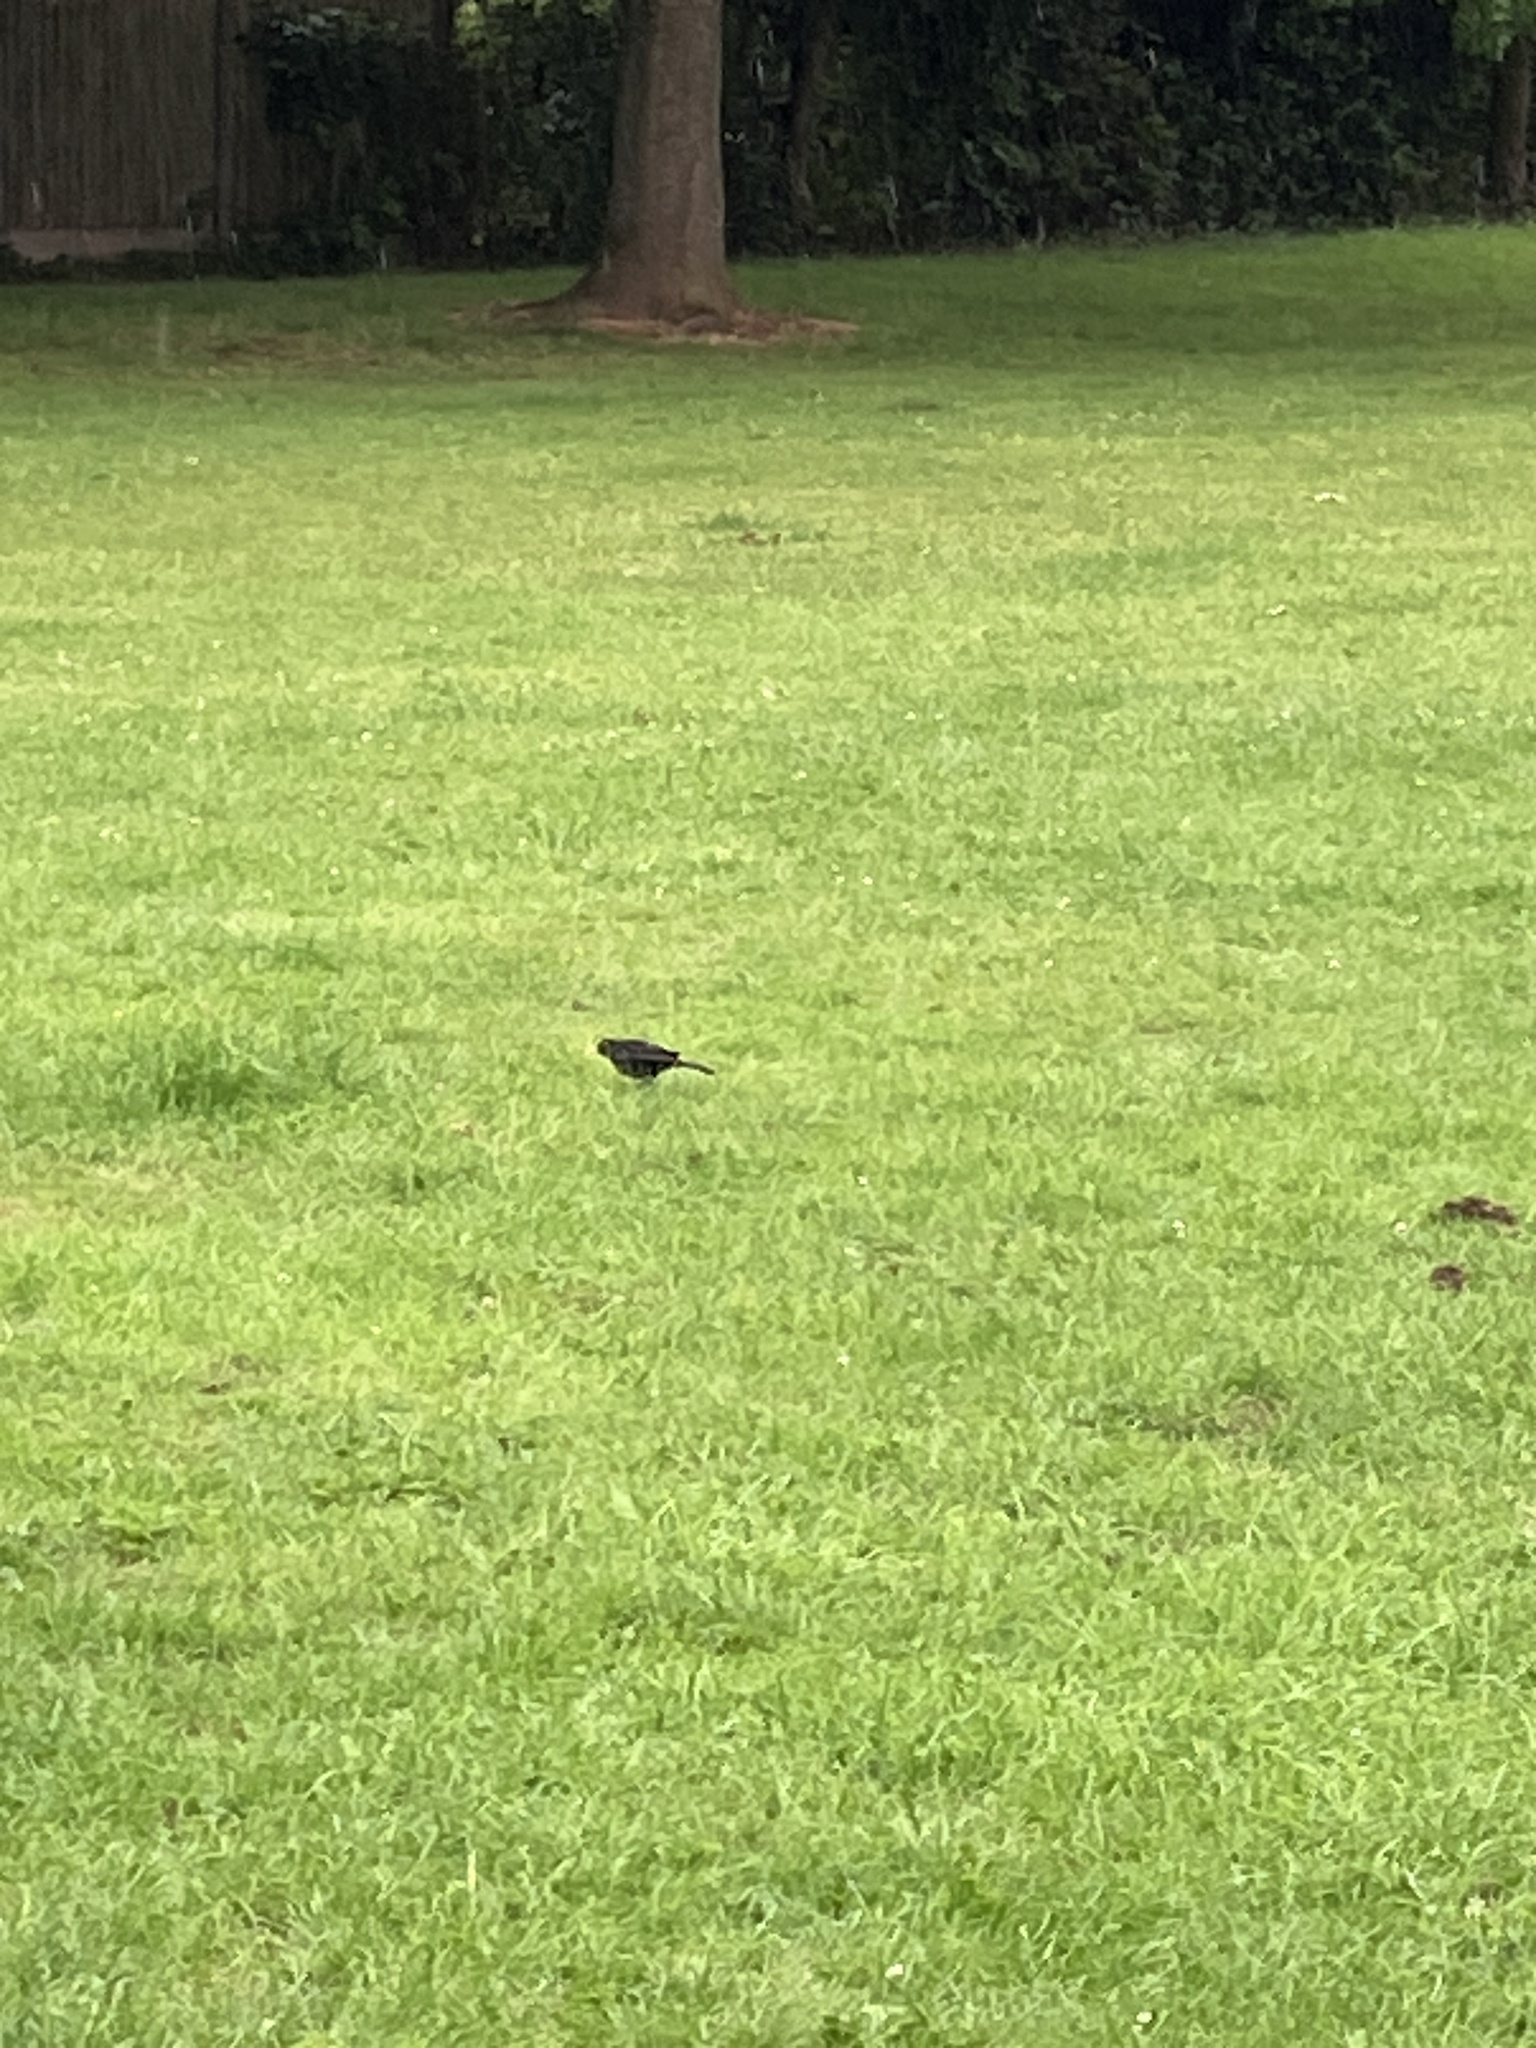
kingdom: Animalia
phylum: Chordata
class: Aves
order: Passeriformes
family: Turdidae
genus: Turdus
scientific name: Turdus merula
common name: Common blackbird
